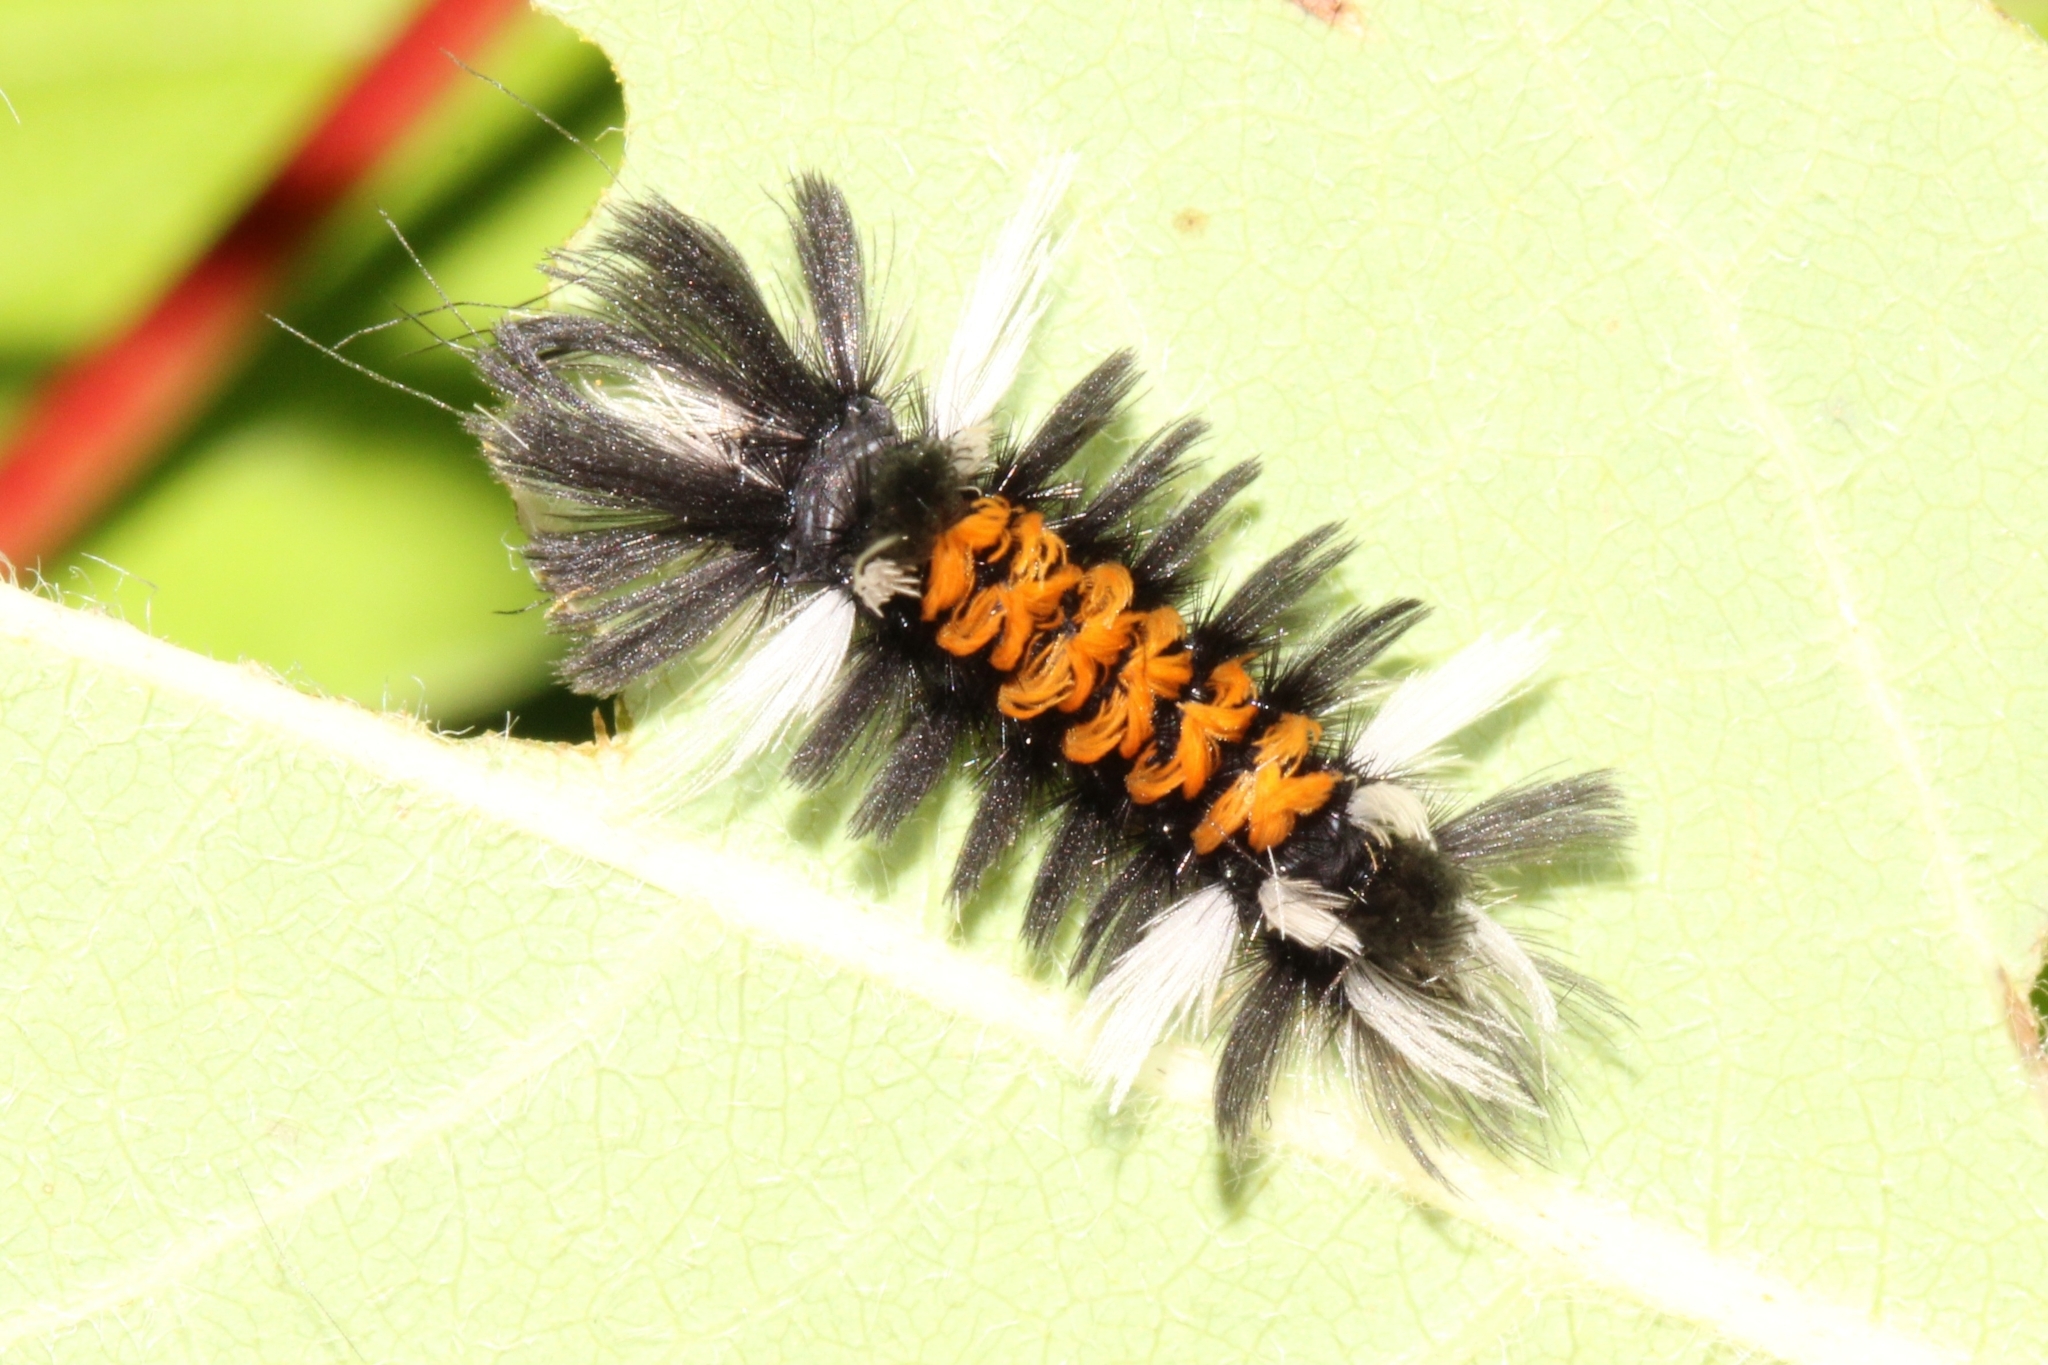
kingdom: Animalia
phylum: Arthropoda
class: Insecta
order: Lepidoptera
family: Erebidae
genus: Euchaetes
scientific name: Euchaetes egle
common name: Milkweed tussock moth
